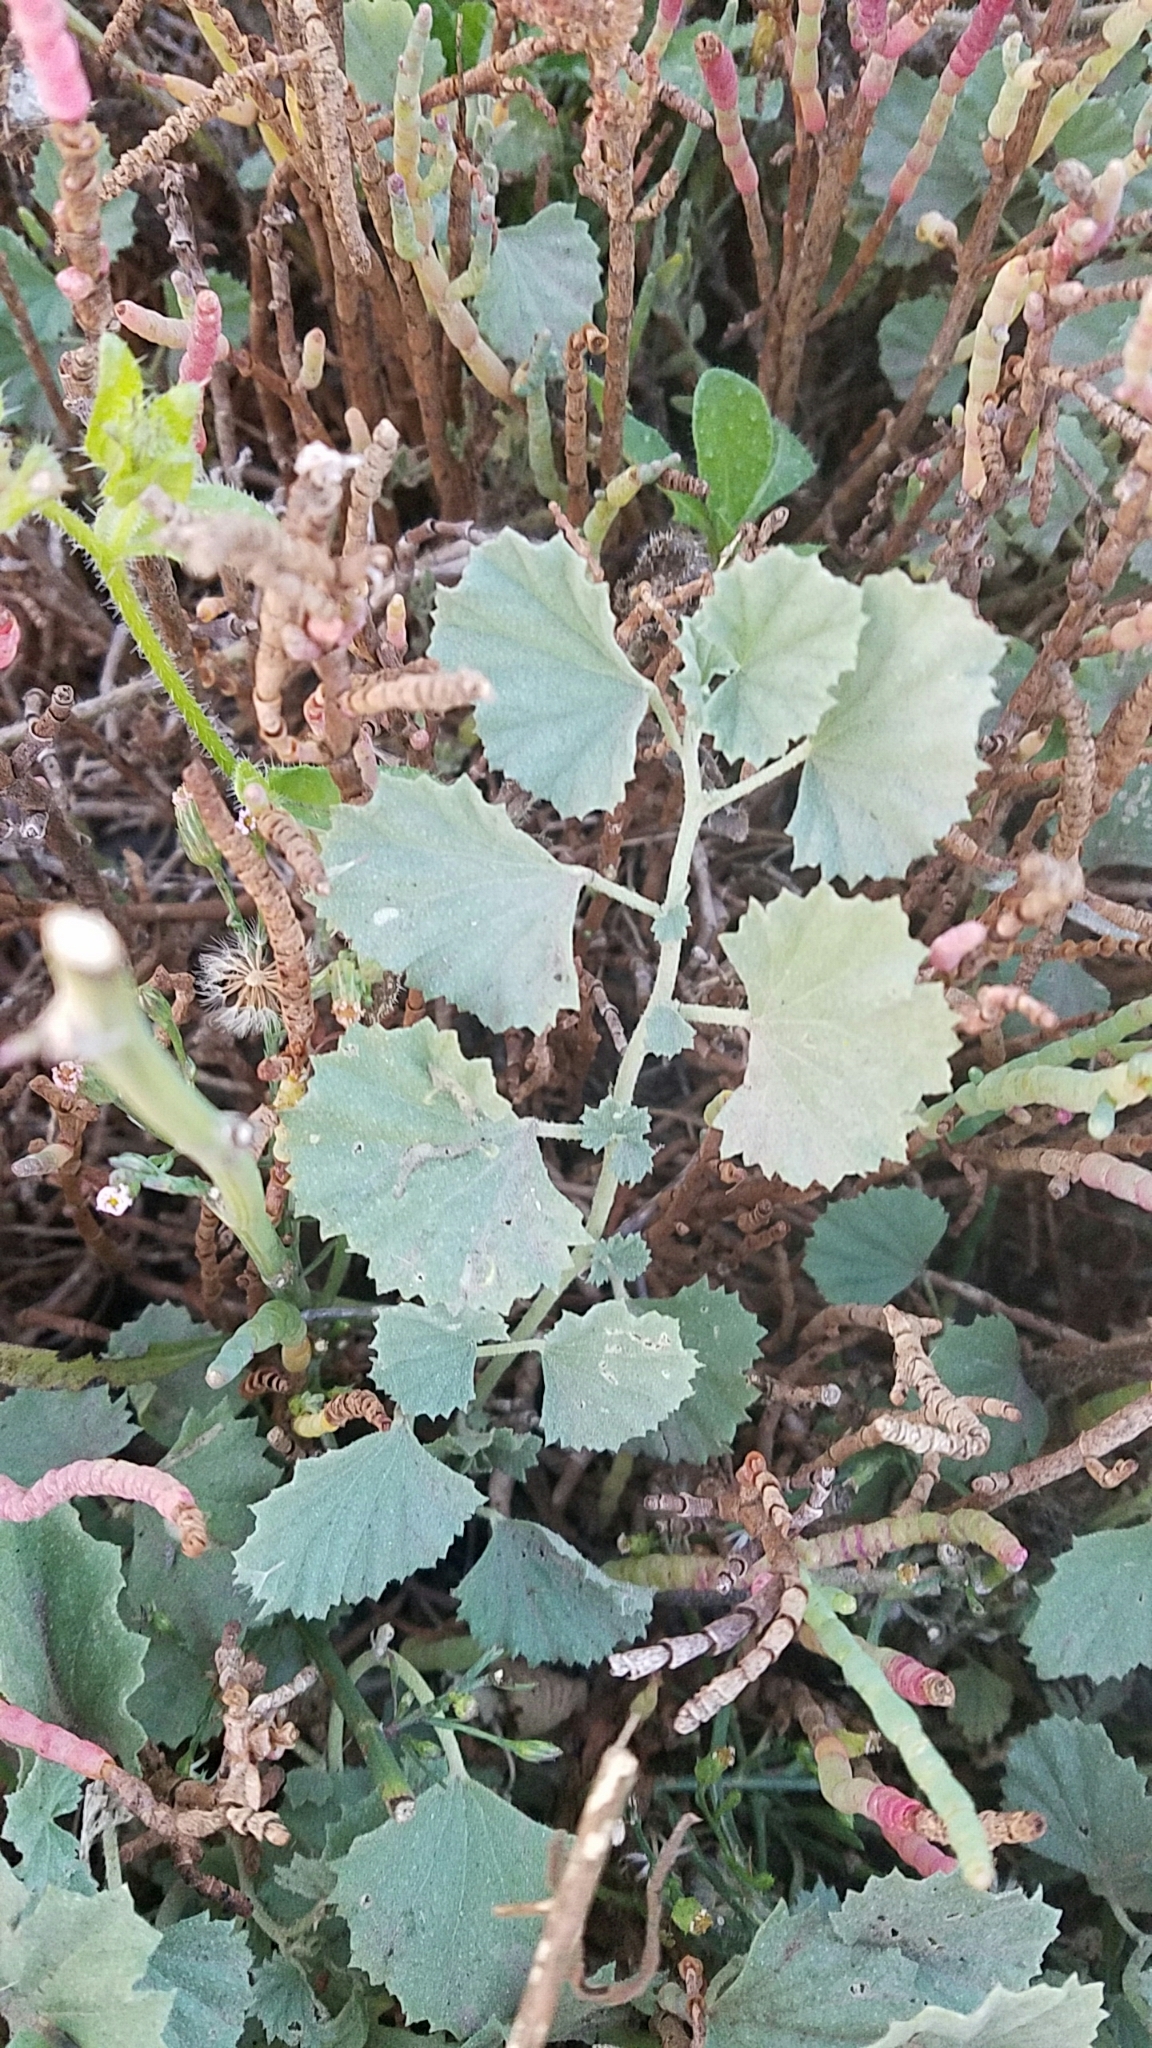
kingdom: Plantae
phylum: Tracheophyta
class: Magnoliopsida
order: Malvales
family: Malvaceae
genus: Malvella
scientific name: Malvella leprosa
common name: Alkali-mallow
